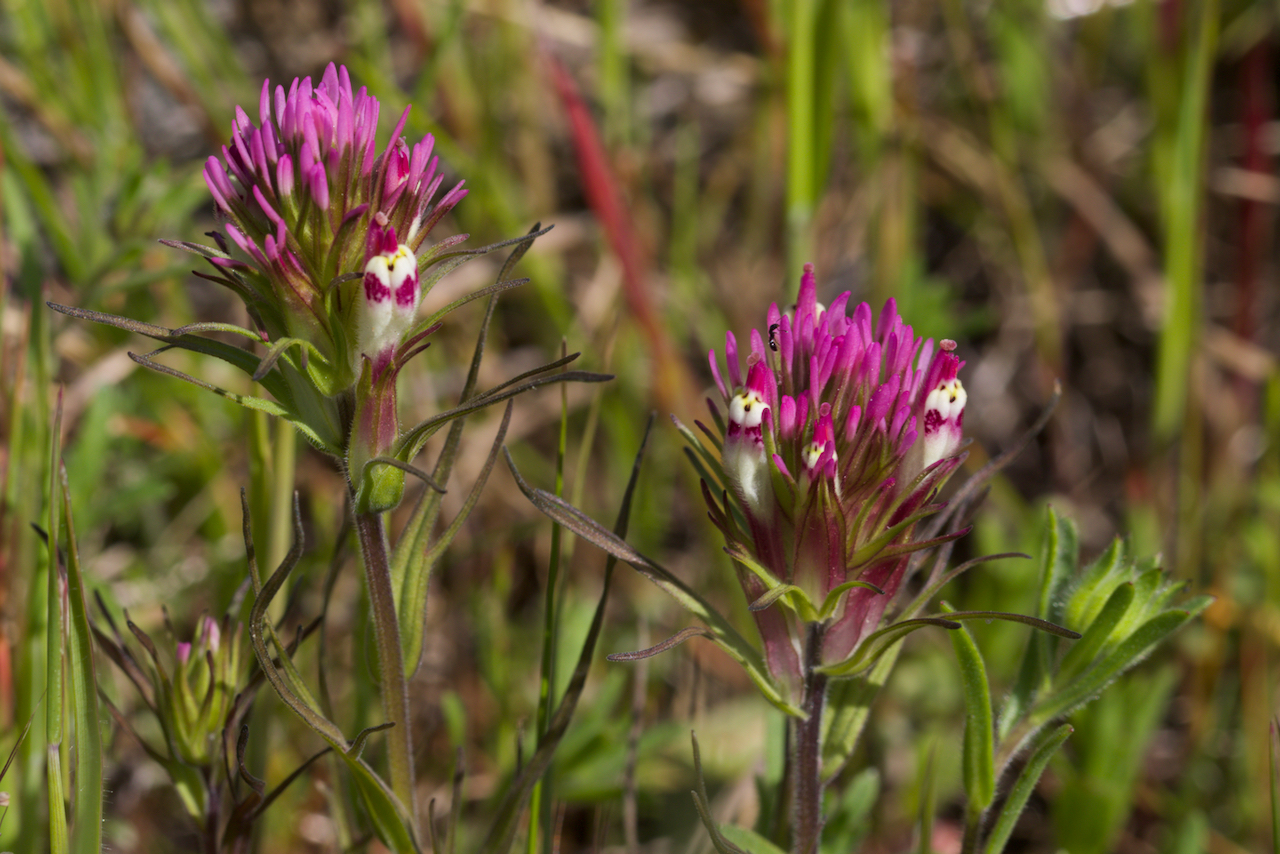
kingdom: Plantae
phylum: Tracheophyta
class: Magnoliopsida
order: Lamiales
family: Orobanchaceae
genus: Castilleja
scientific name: Castilleja densiflora
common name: Dense-flower indian paintbrush
